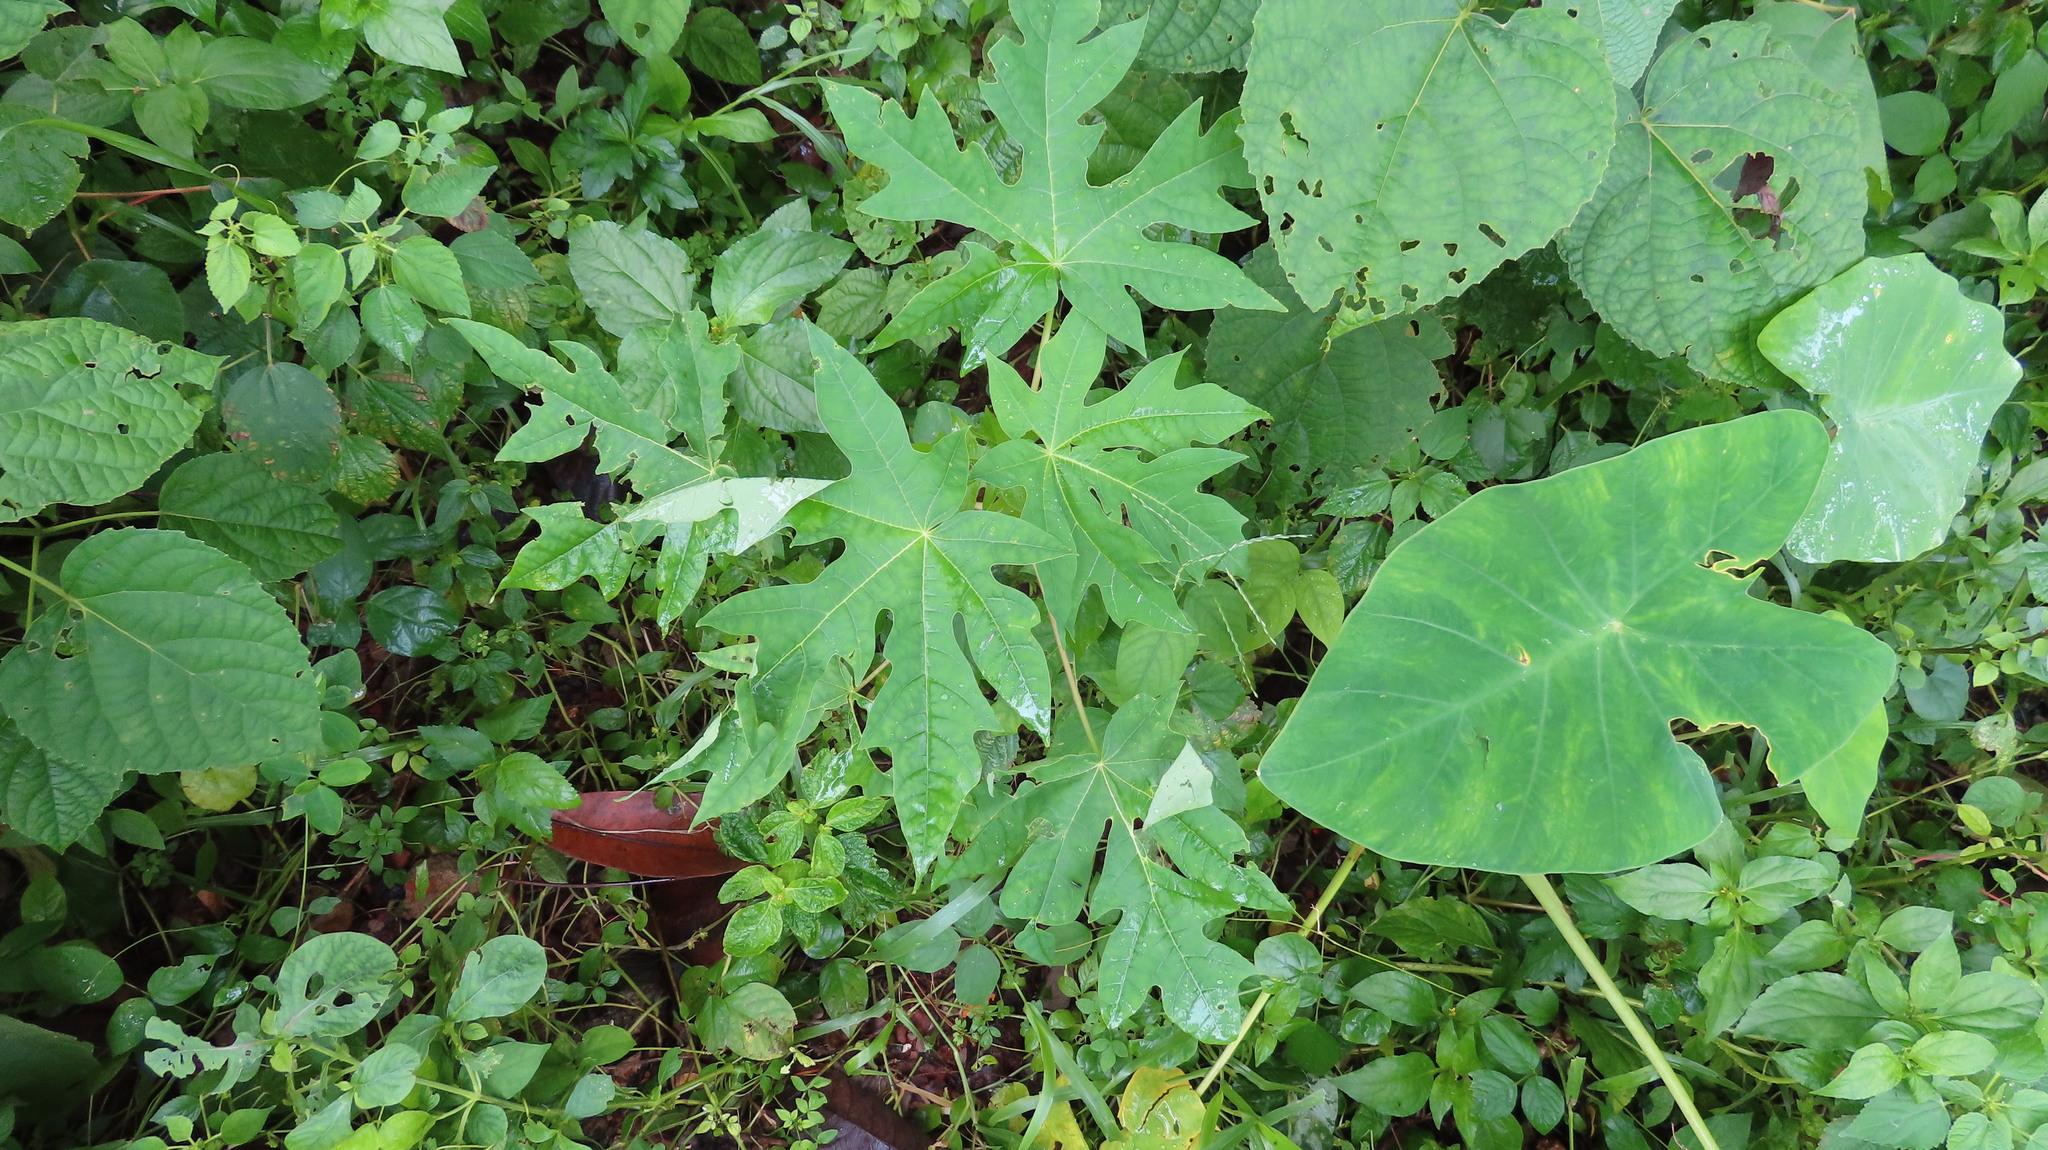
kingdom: Plantae
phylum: Tracheophyta
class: Magnoliopsida
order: Brassicales
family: Caricaceae
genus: Carica
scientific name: Carica papaya
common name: Papaya
